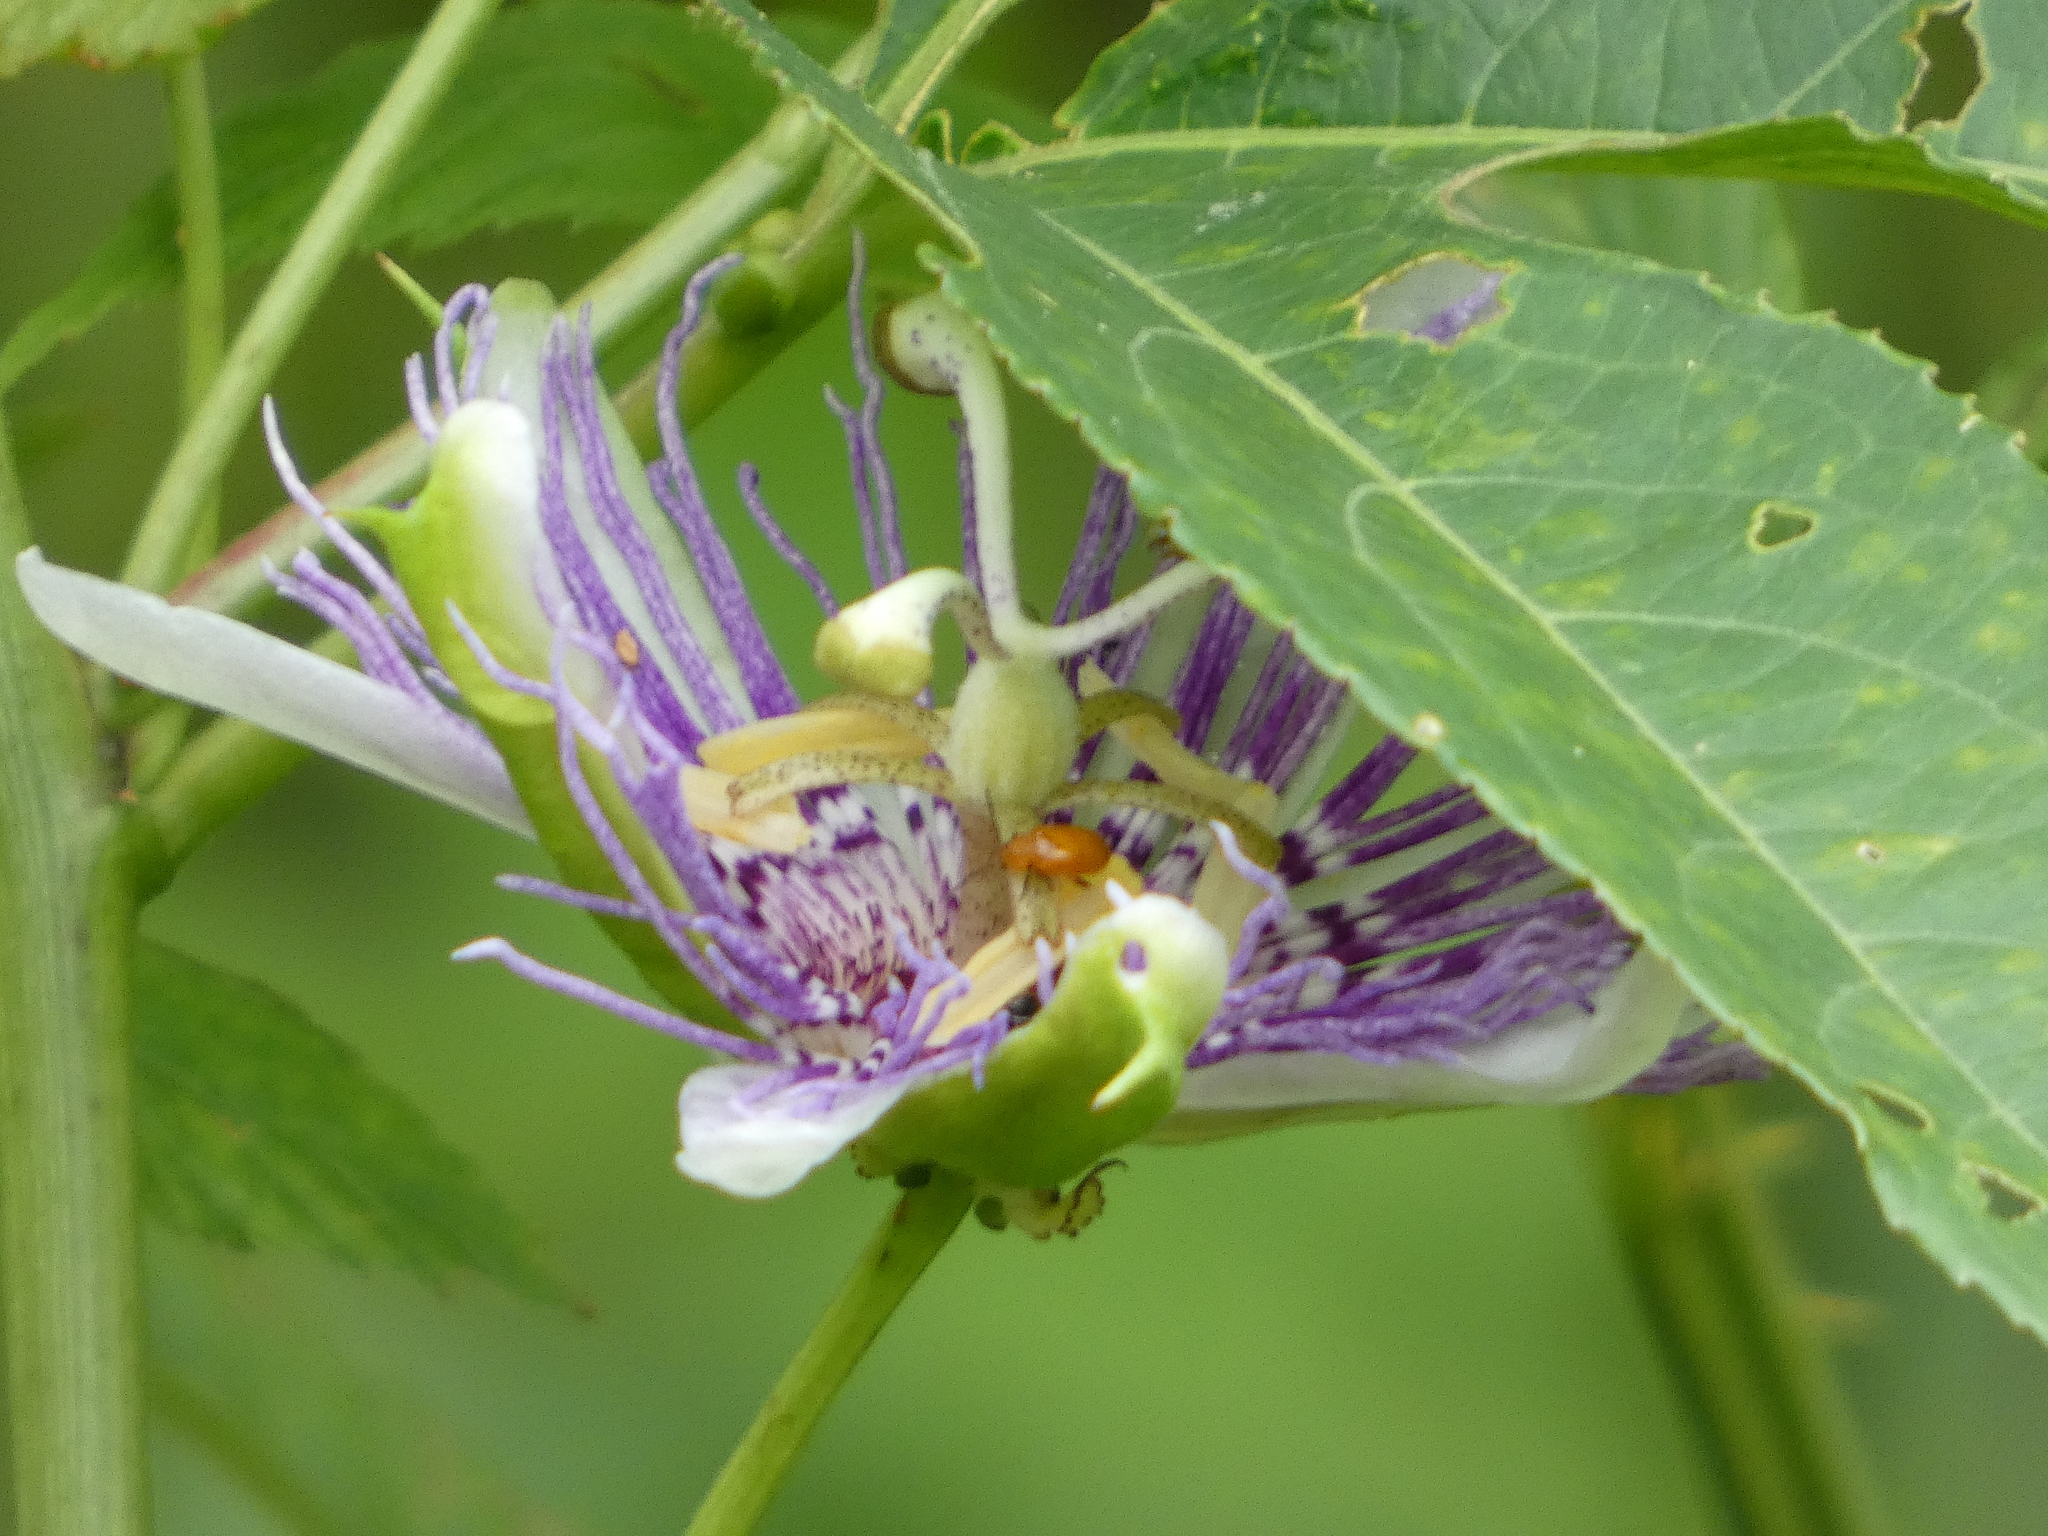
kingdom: Plantae
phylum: Tracheophyta
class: Magnoliopsida
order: Malpighiales
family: Passifloraceae
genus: Passiflora
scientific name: Passiflora incarnata
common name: Apricot-vine
